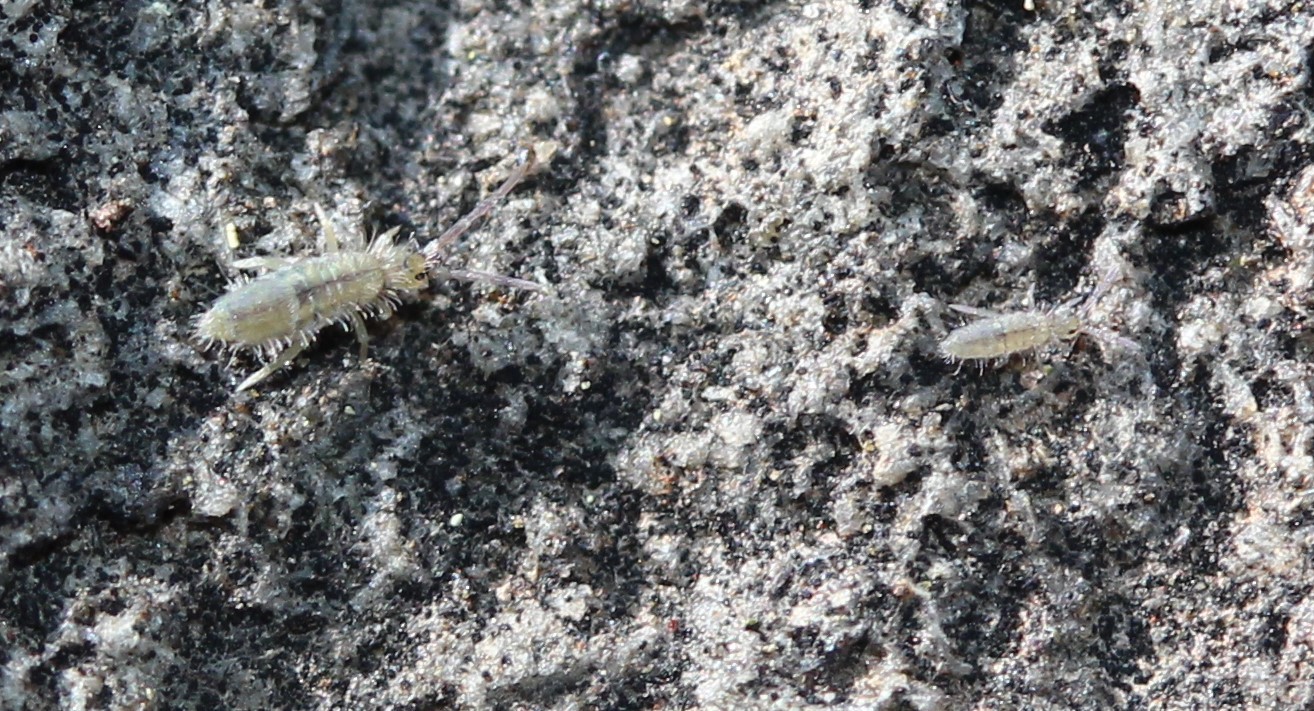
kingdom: Animalia
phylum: Arthropoda
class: Collembola
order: Entomobryomorpha
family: Entomobryidae
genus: Entomobrya
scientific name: Entomobrya unostrigata
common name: Springtail
